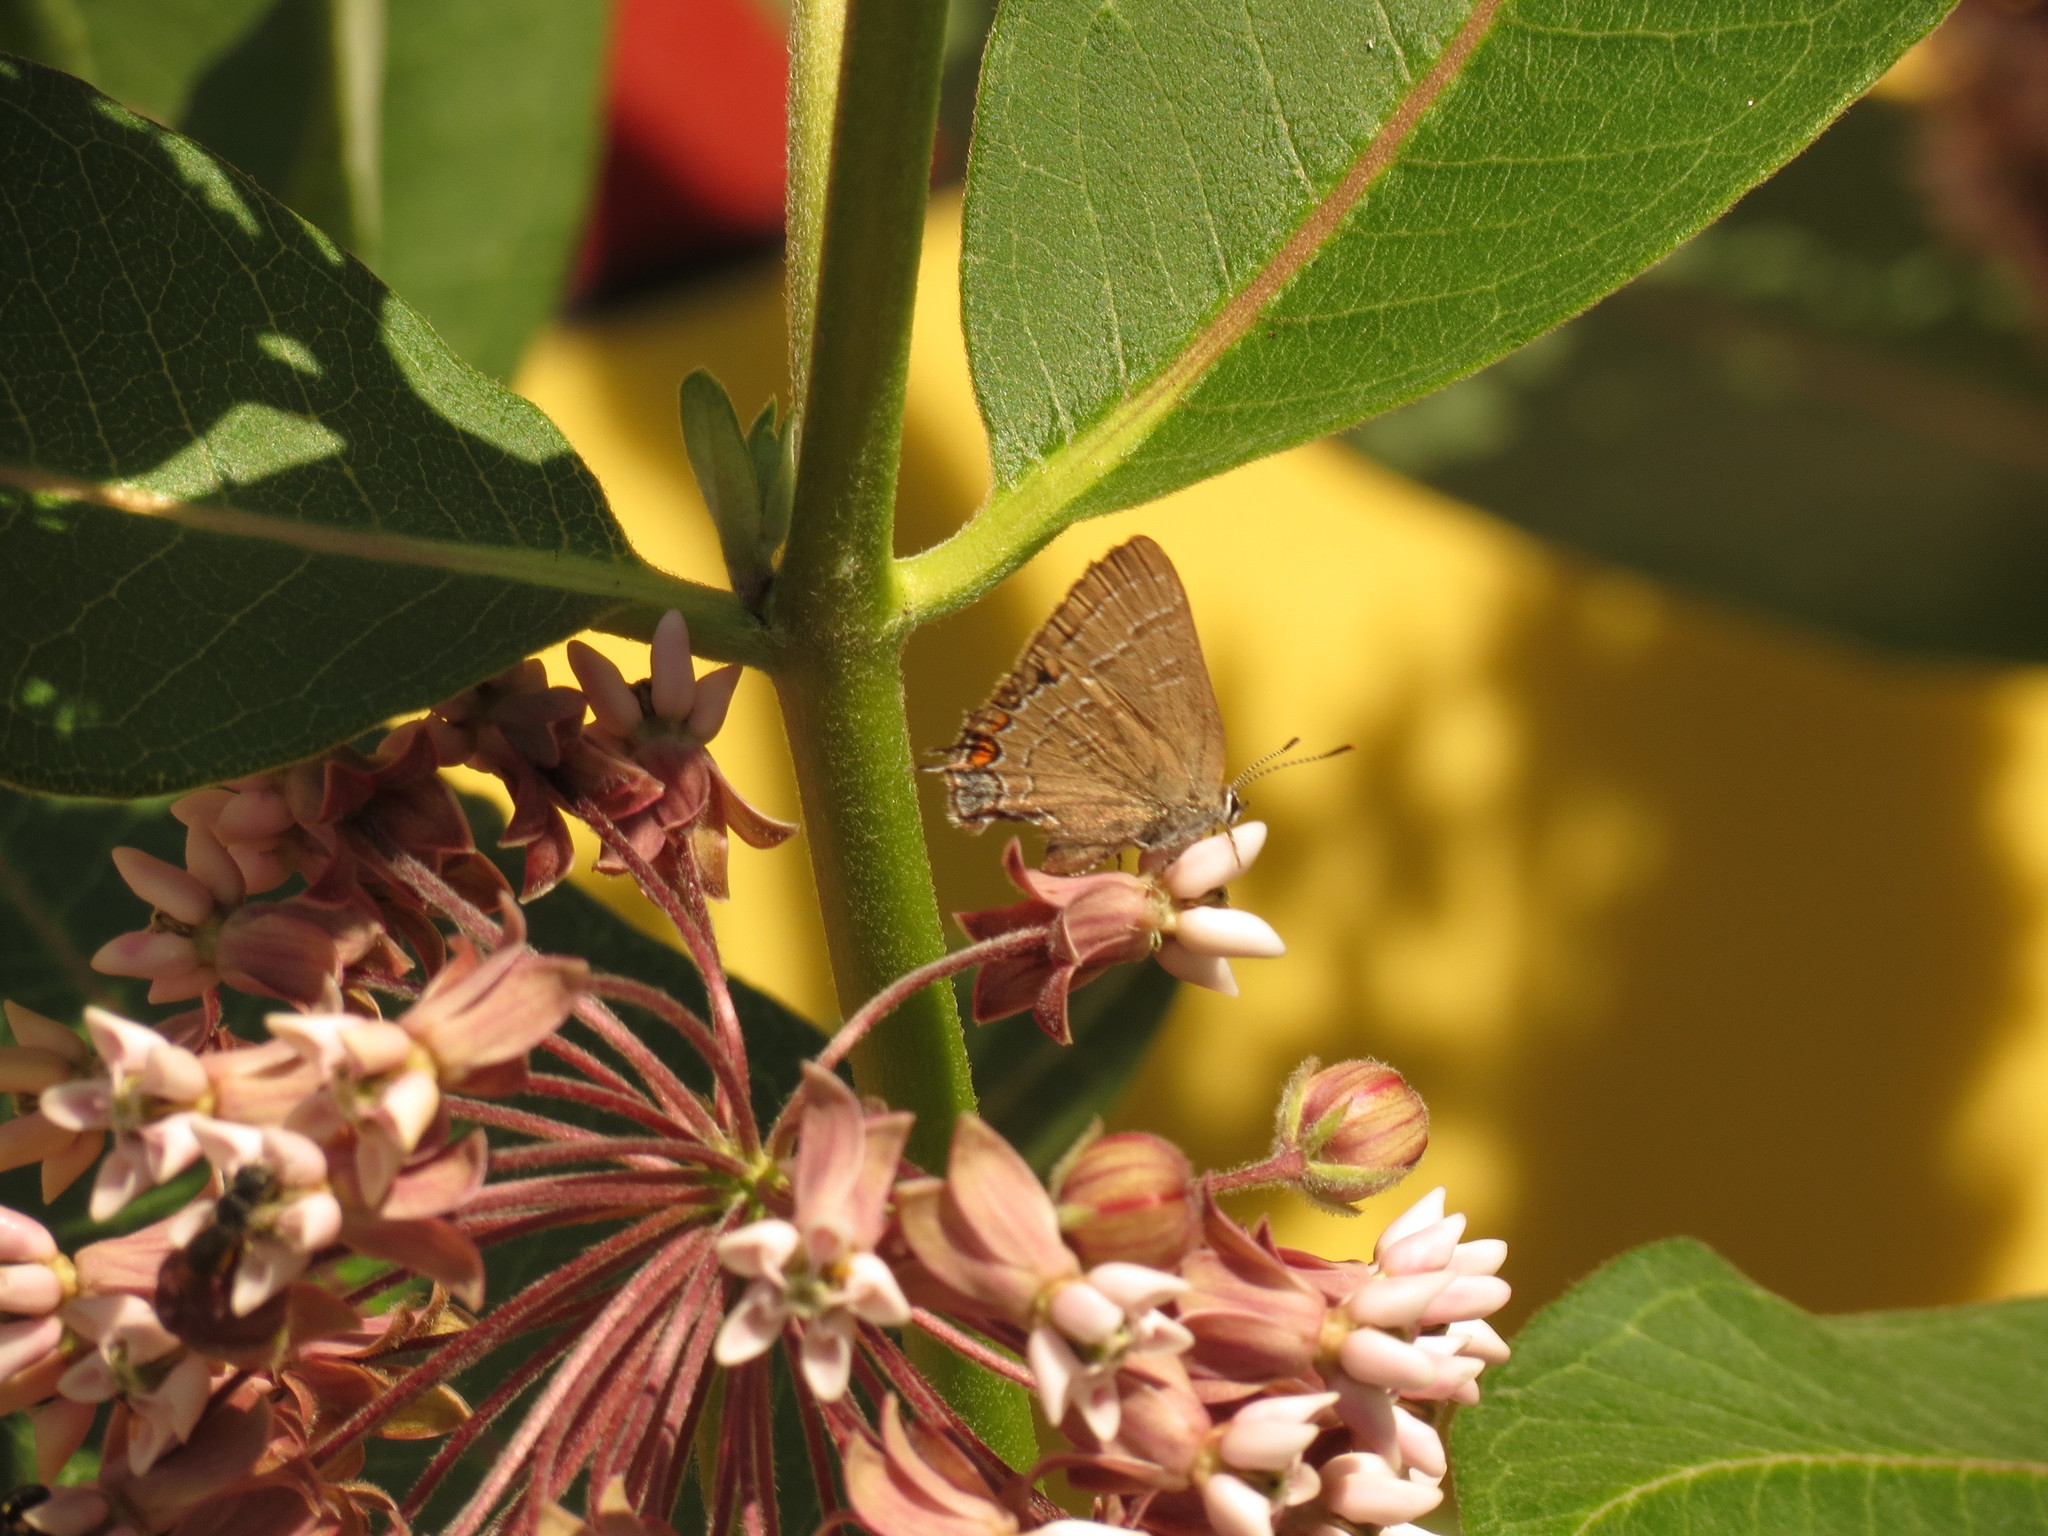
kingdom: Animalia
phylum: Arthropoda
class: Insecta
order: Lepidoptera
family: Lycaenidae
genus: Satyrium
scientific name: Satyrium calanus
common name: Banded hairstreak
